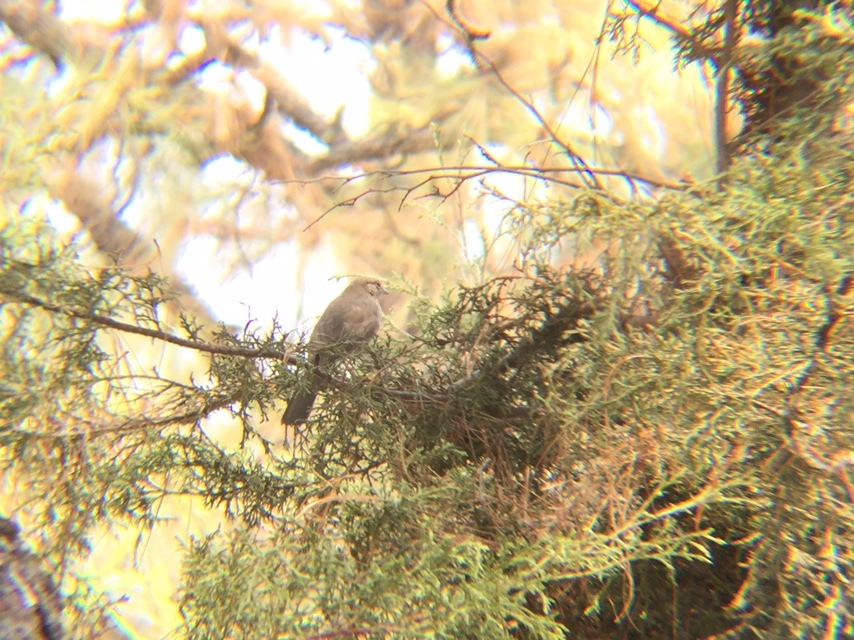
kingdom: Animalia
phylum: Chordata
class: Aves
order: Passeriformes
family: Passerellidae
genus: Melozone
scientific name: Melozone fusca
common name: Canyon towhee
